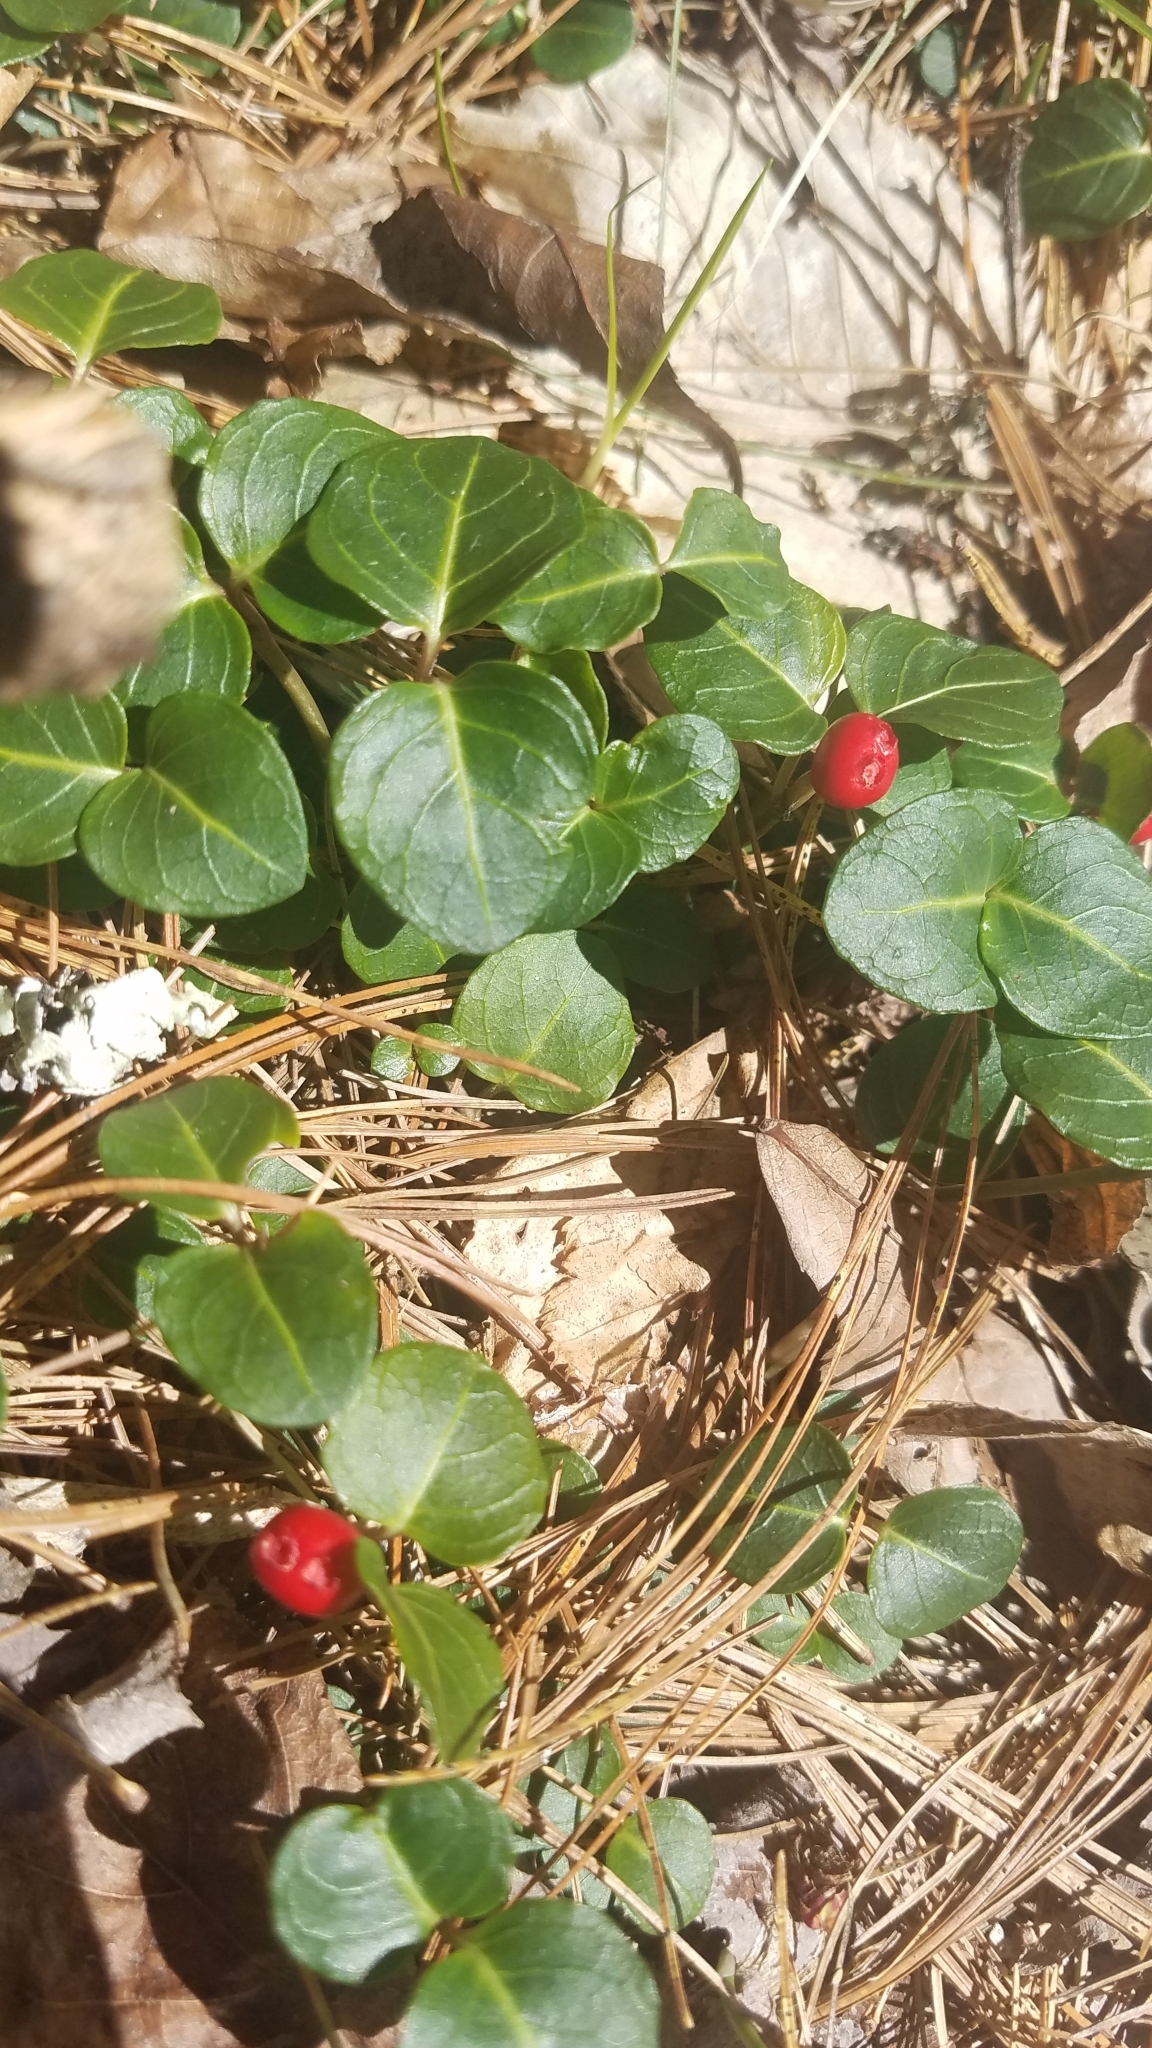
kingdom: Plantae
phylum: Tracheophyta
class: Magnoliopsida
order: Gentianales
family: Rubiaceae
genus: Mitchella
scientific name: Mitchella repens
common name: Partridge-berry
